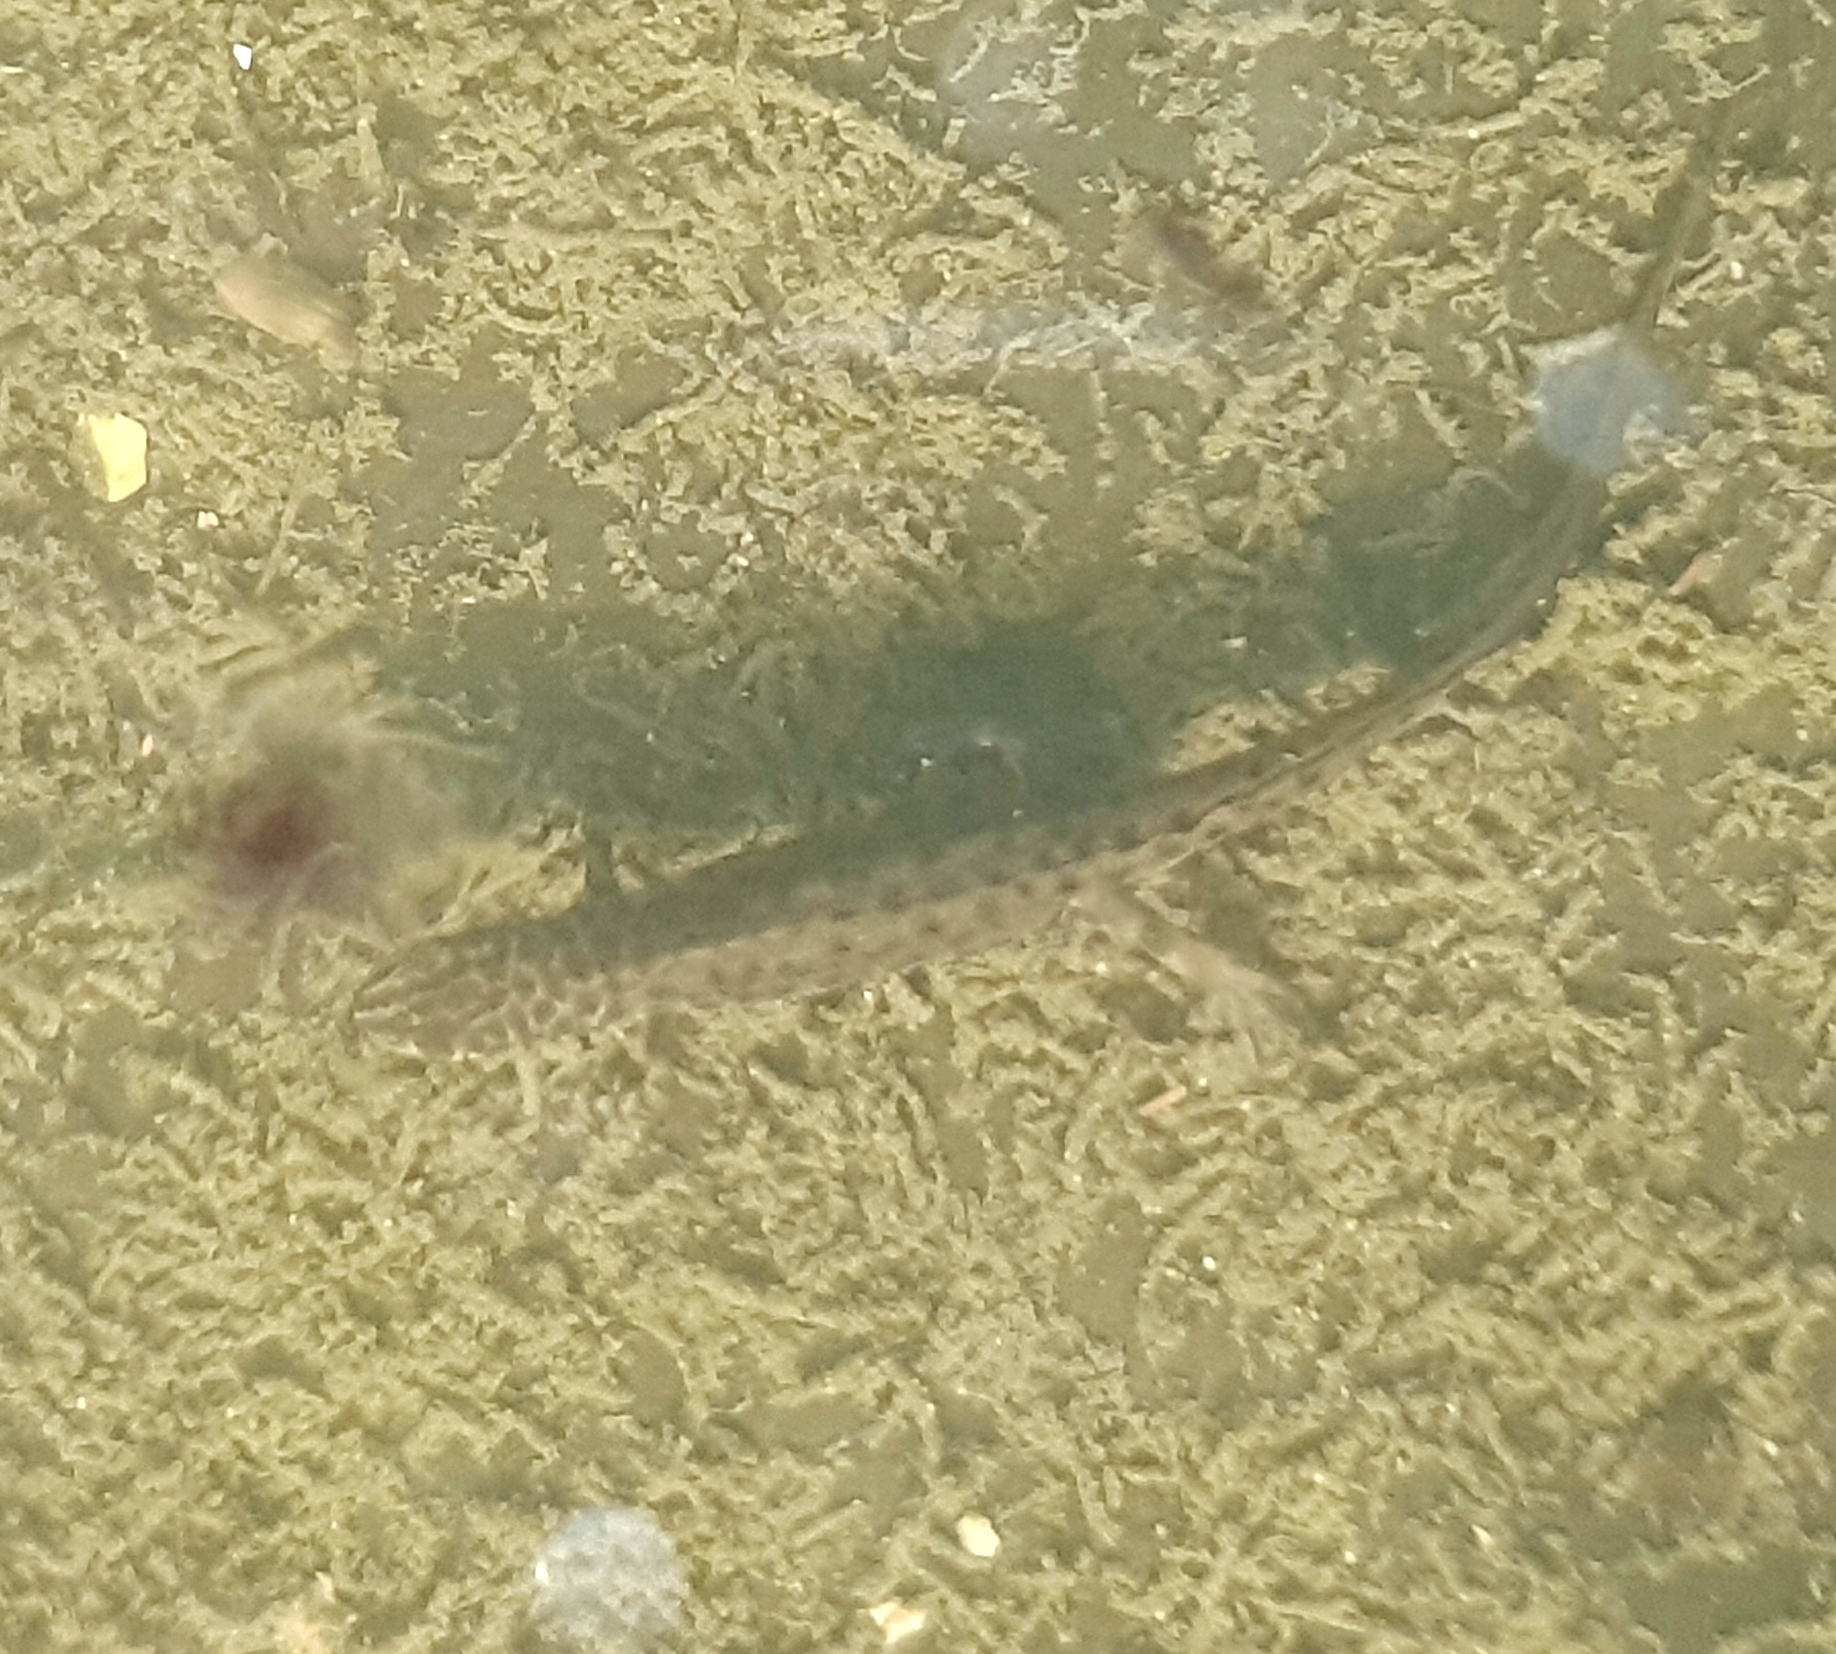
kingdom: Animalia
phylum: Chordata
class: Amphibia
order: Caudata
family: Salamandridae
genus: Lissotriton
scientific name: Lissotriton vulgaris
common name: Smooth newt
